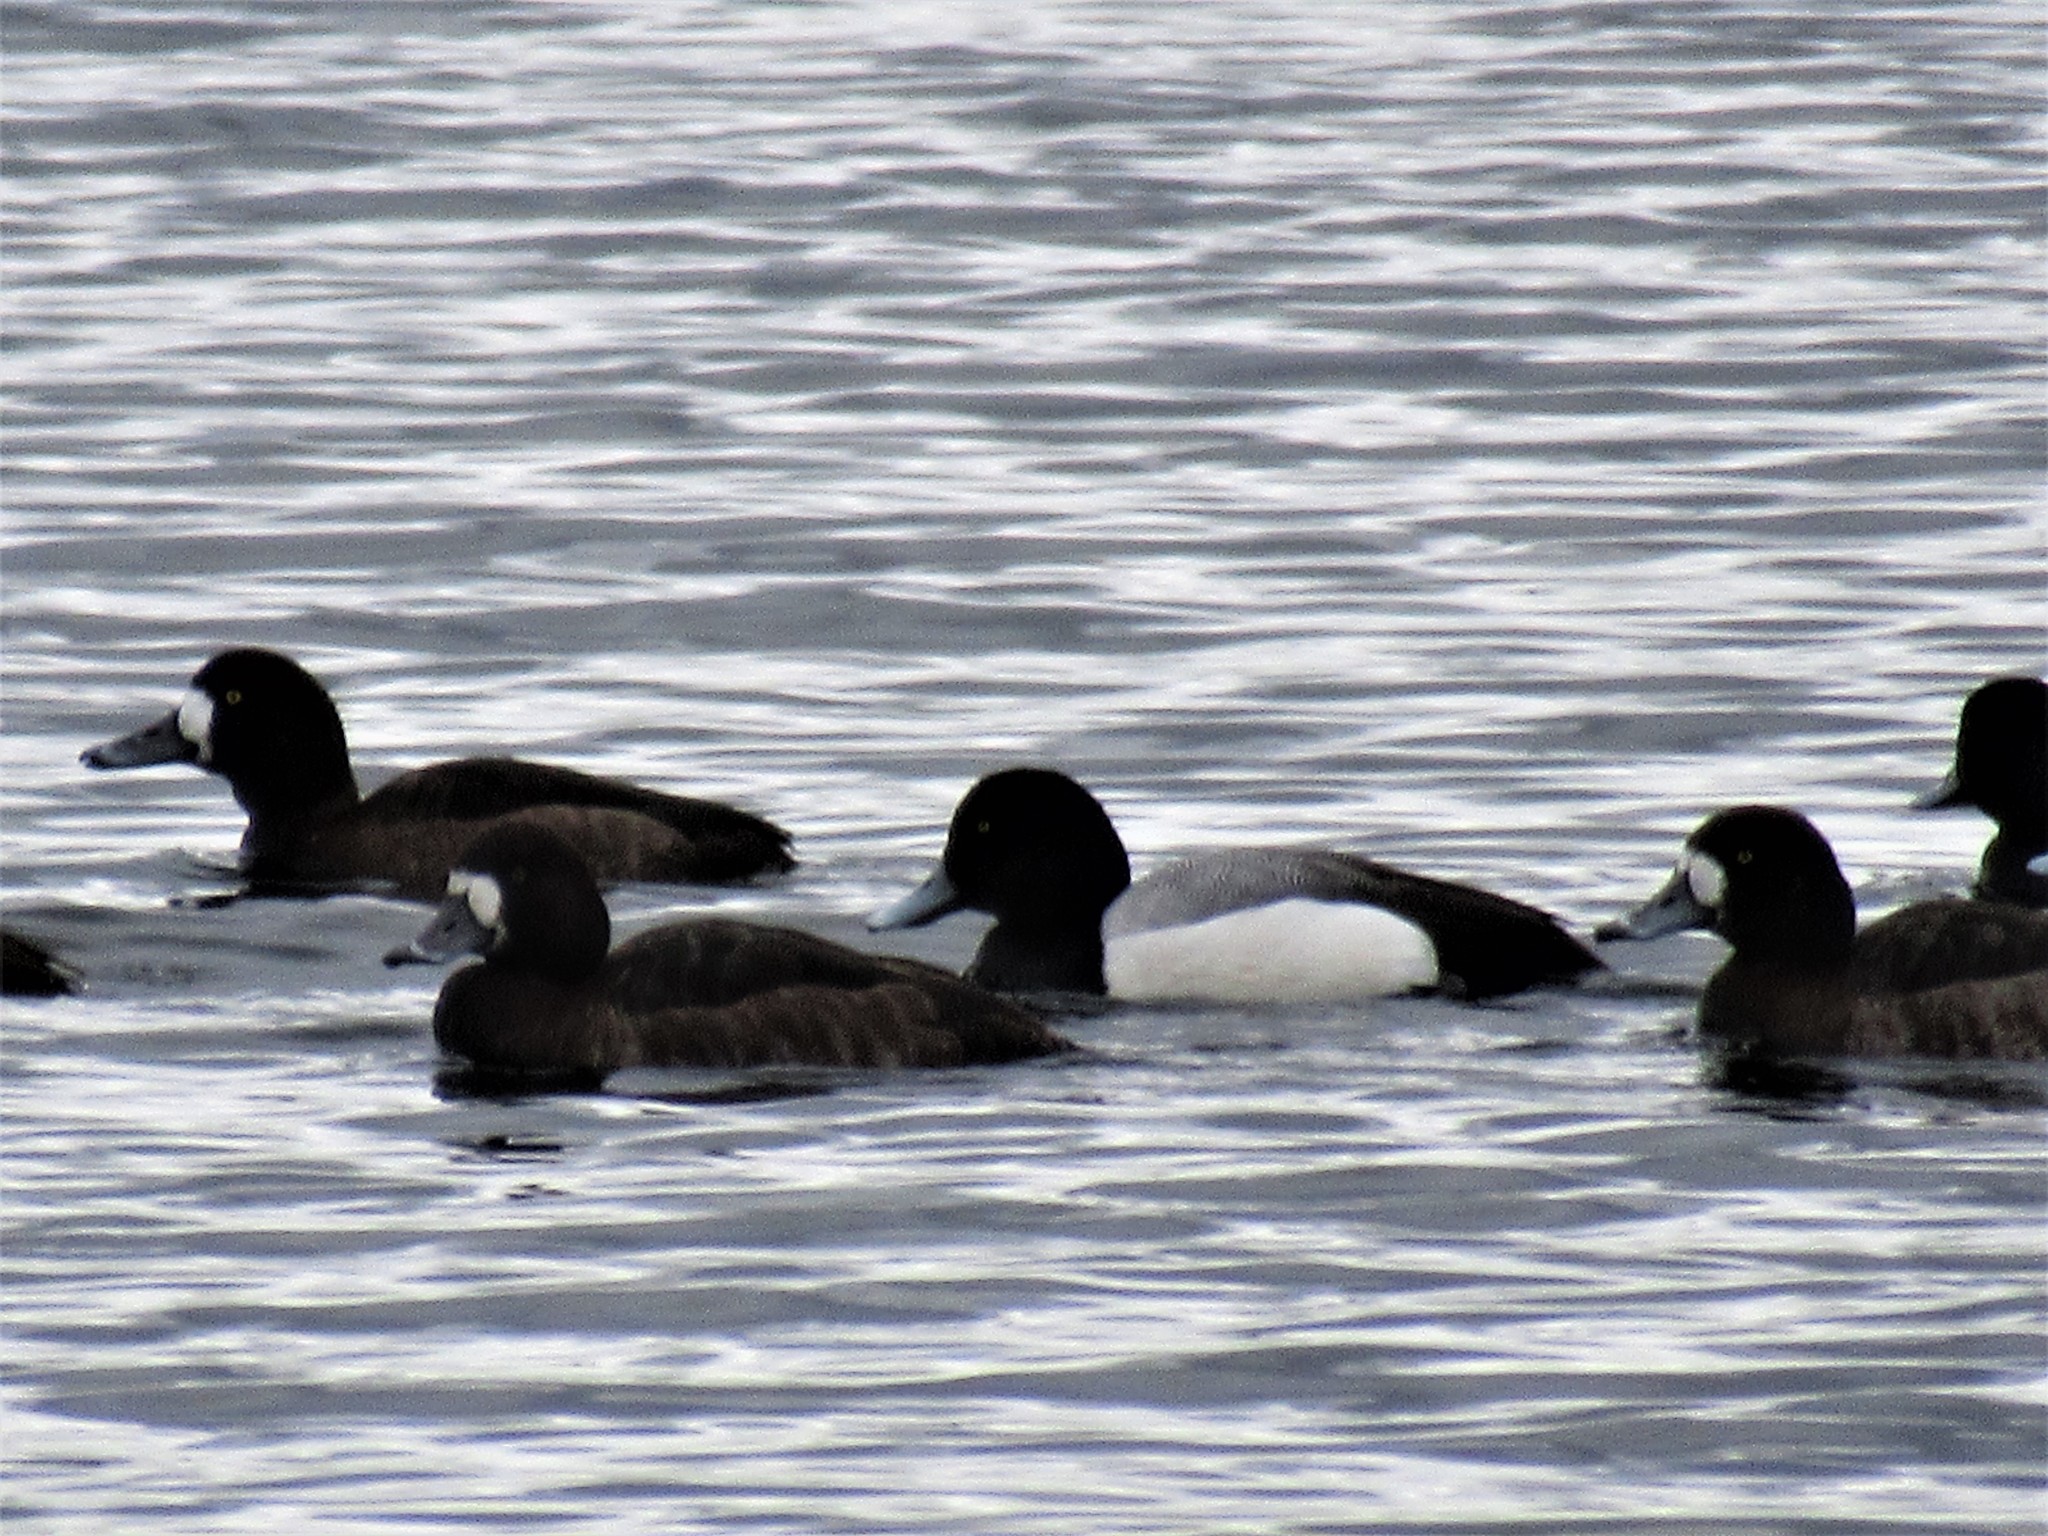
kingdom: Animalia
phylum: Chordata
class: Aves
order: Anseriformes
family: Anatidae
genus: Aythya
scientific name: Aythya marila
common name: Greater scaup
